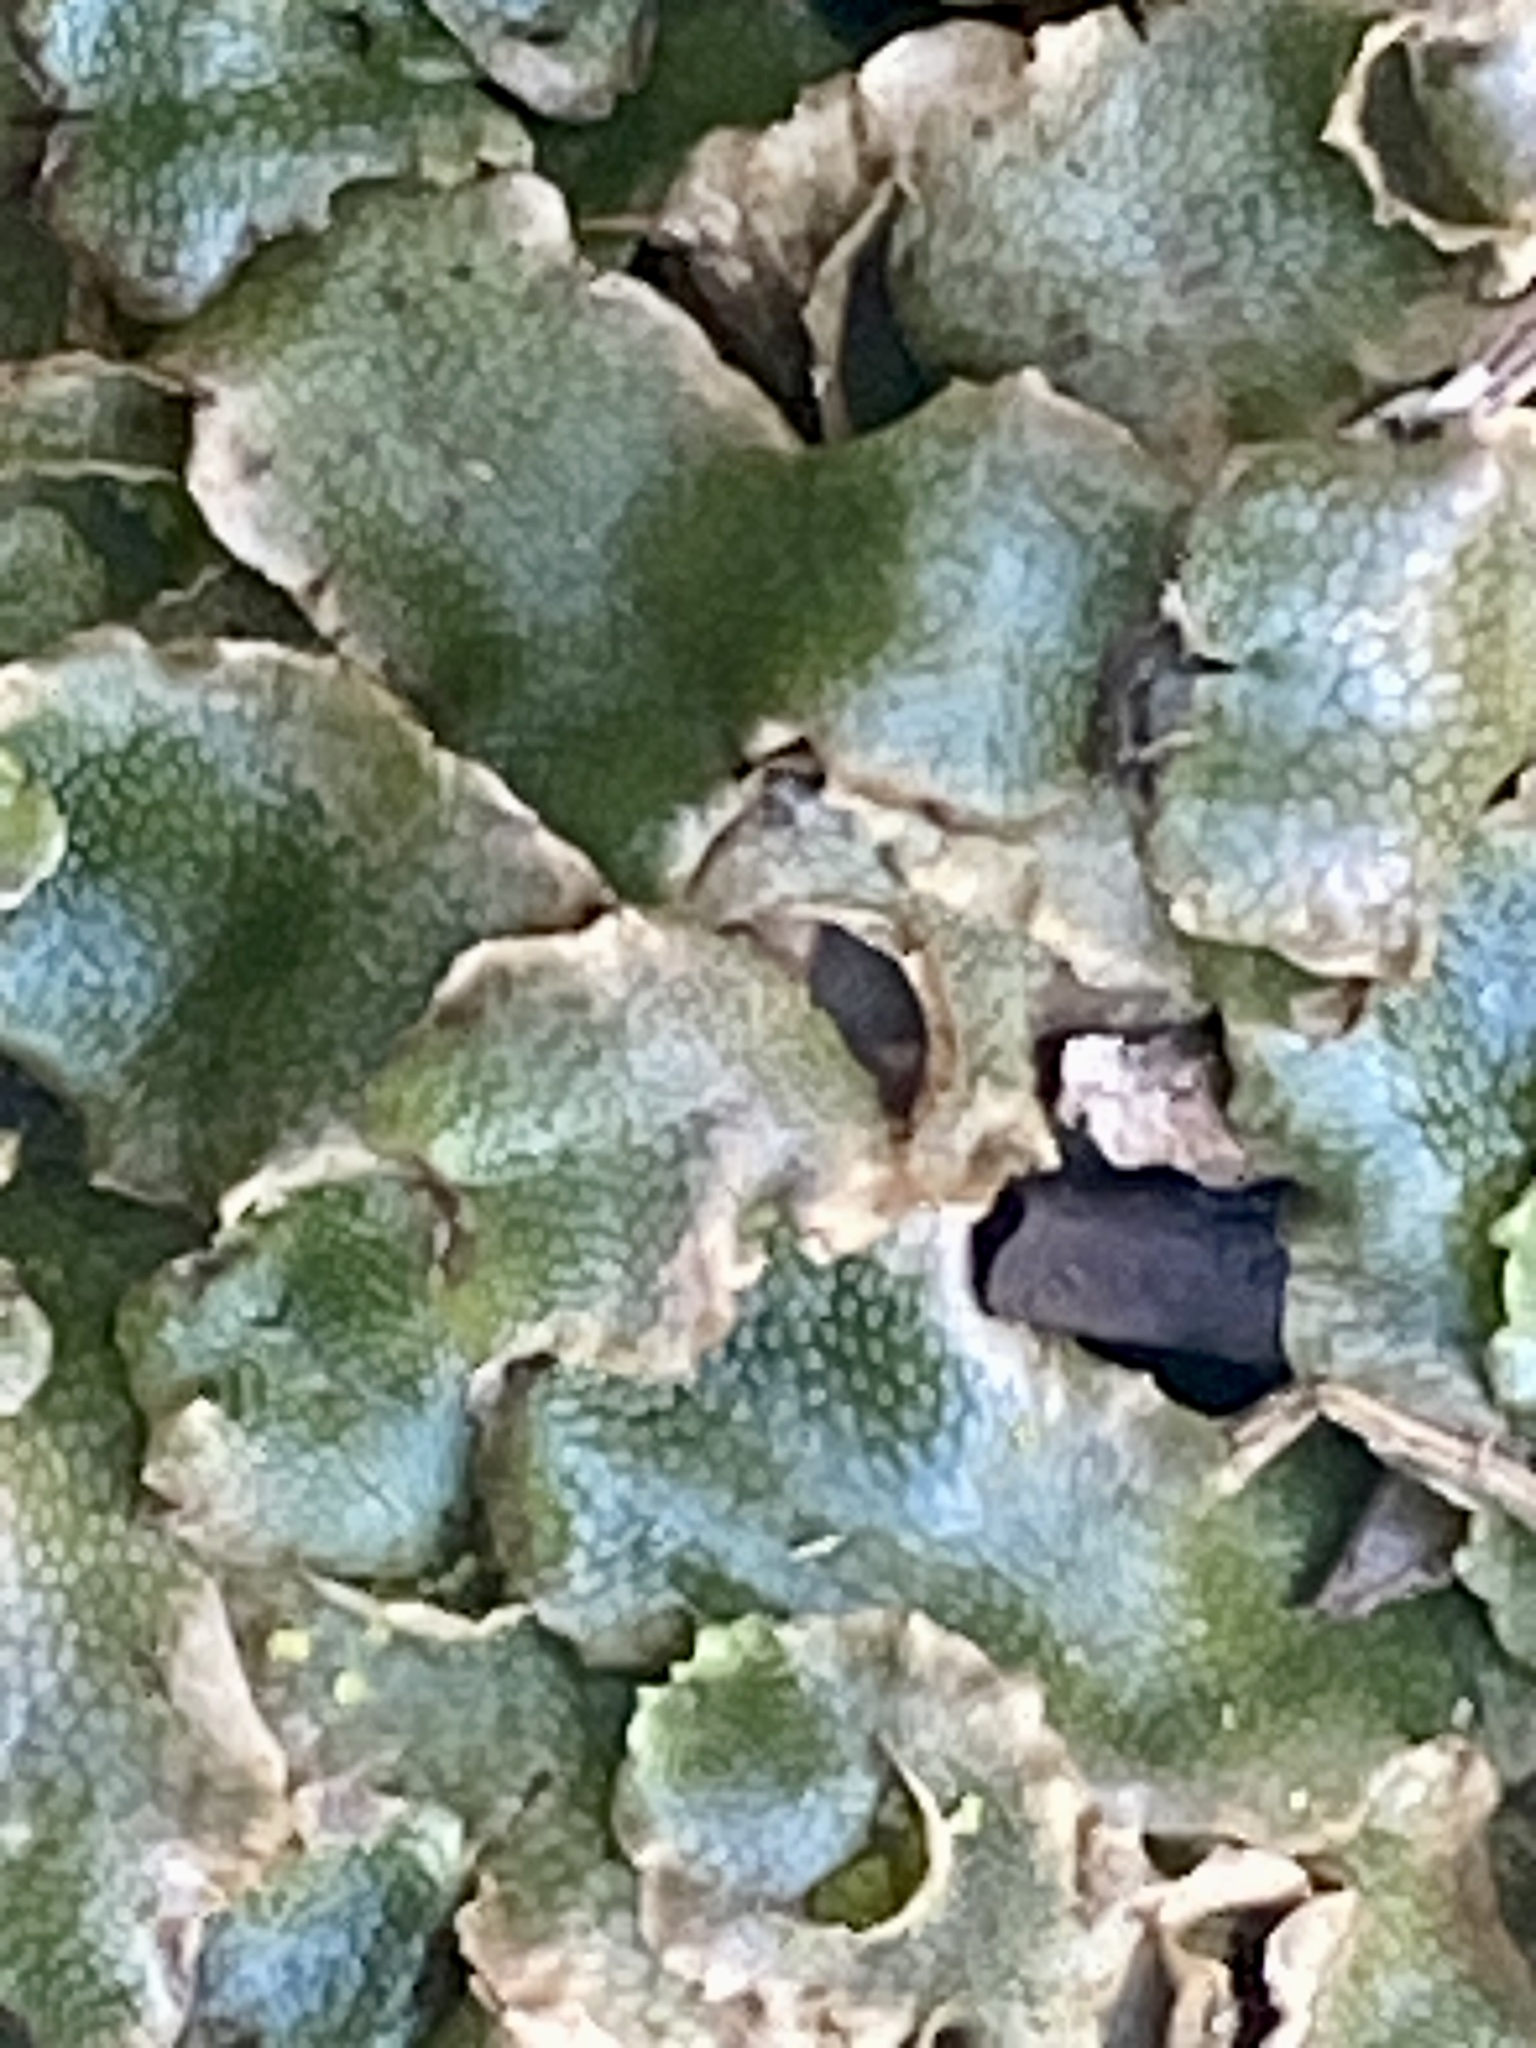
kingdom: Plantae
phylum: Marchantiophyta
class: Marchantiopsida
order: Lunulariales
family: Lunulariaceae
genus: Lunularia
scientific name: Lunularia cruciata
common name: Crescent-cup liverwort
